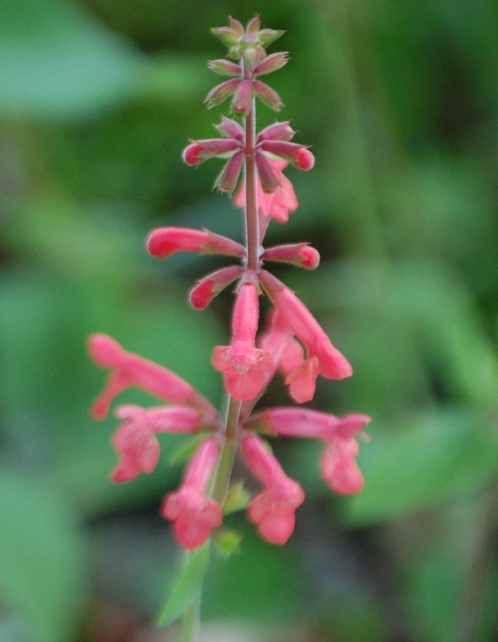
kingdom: Plantae
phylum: Tracheophyta
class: Magnoliopsida
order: Lamiales
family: Lamiaceae
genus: Stachys
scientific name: Stachys coccinea
